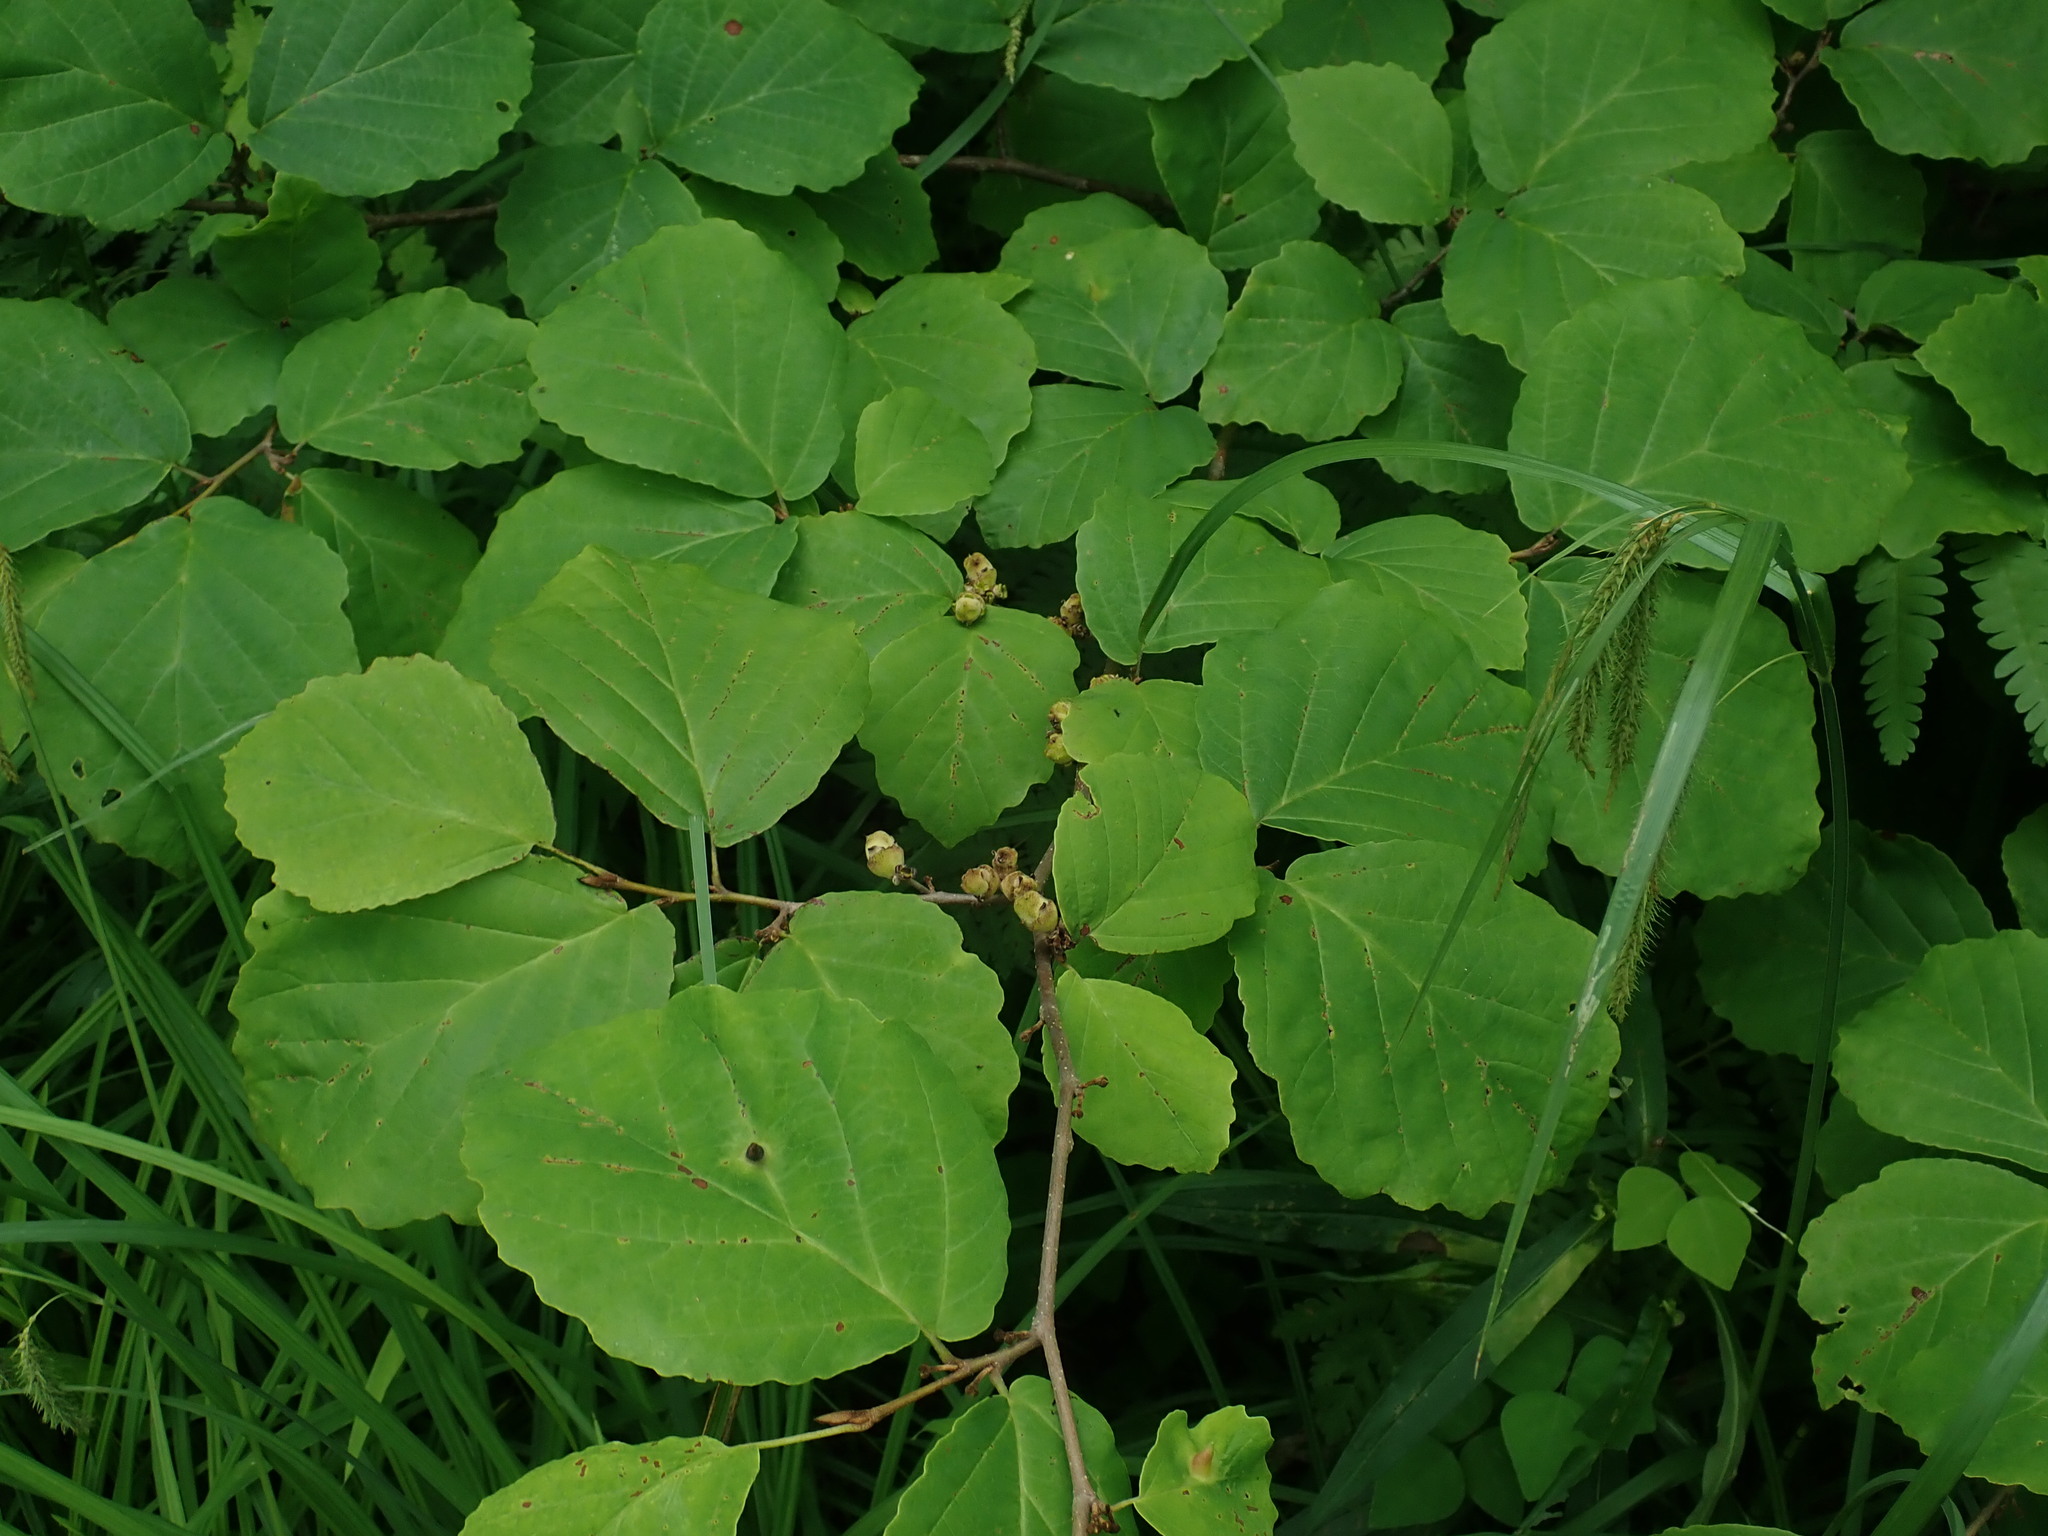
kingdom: Plantae
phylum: Tracheophyta
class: Magnoliopsida
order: Saxifragales
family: Hamamelidaceae
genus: Hamamelis
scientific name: Hamamelis virginiana
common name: Witch-hazel
